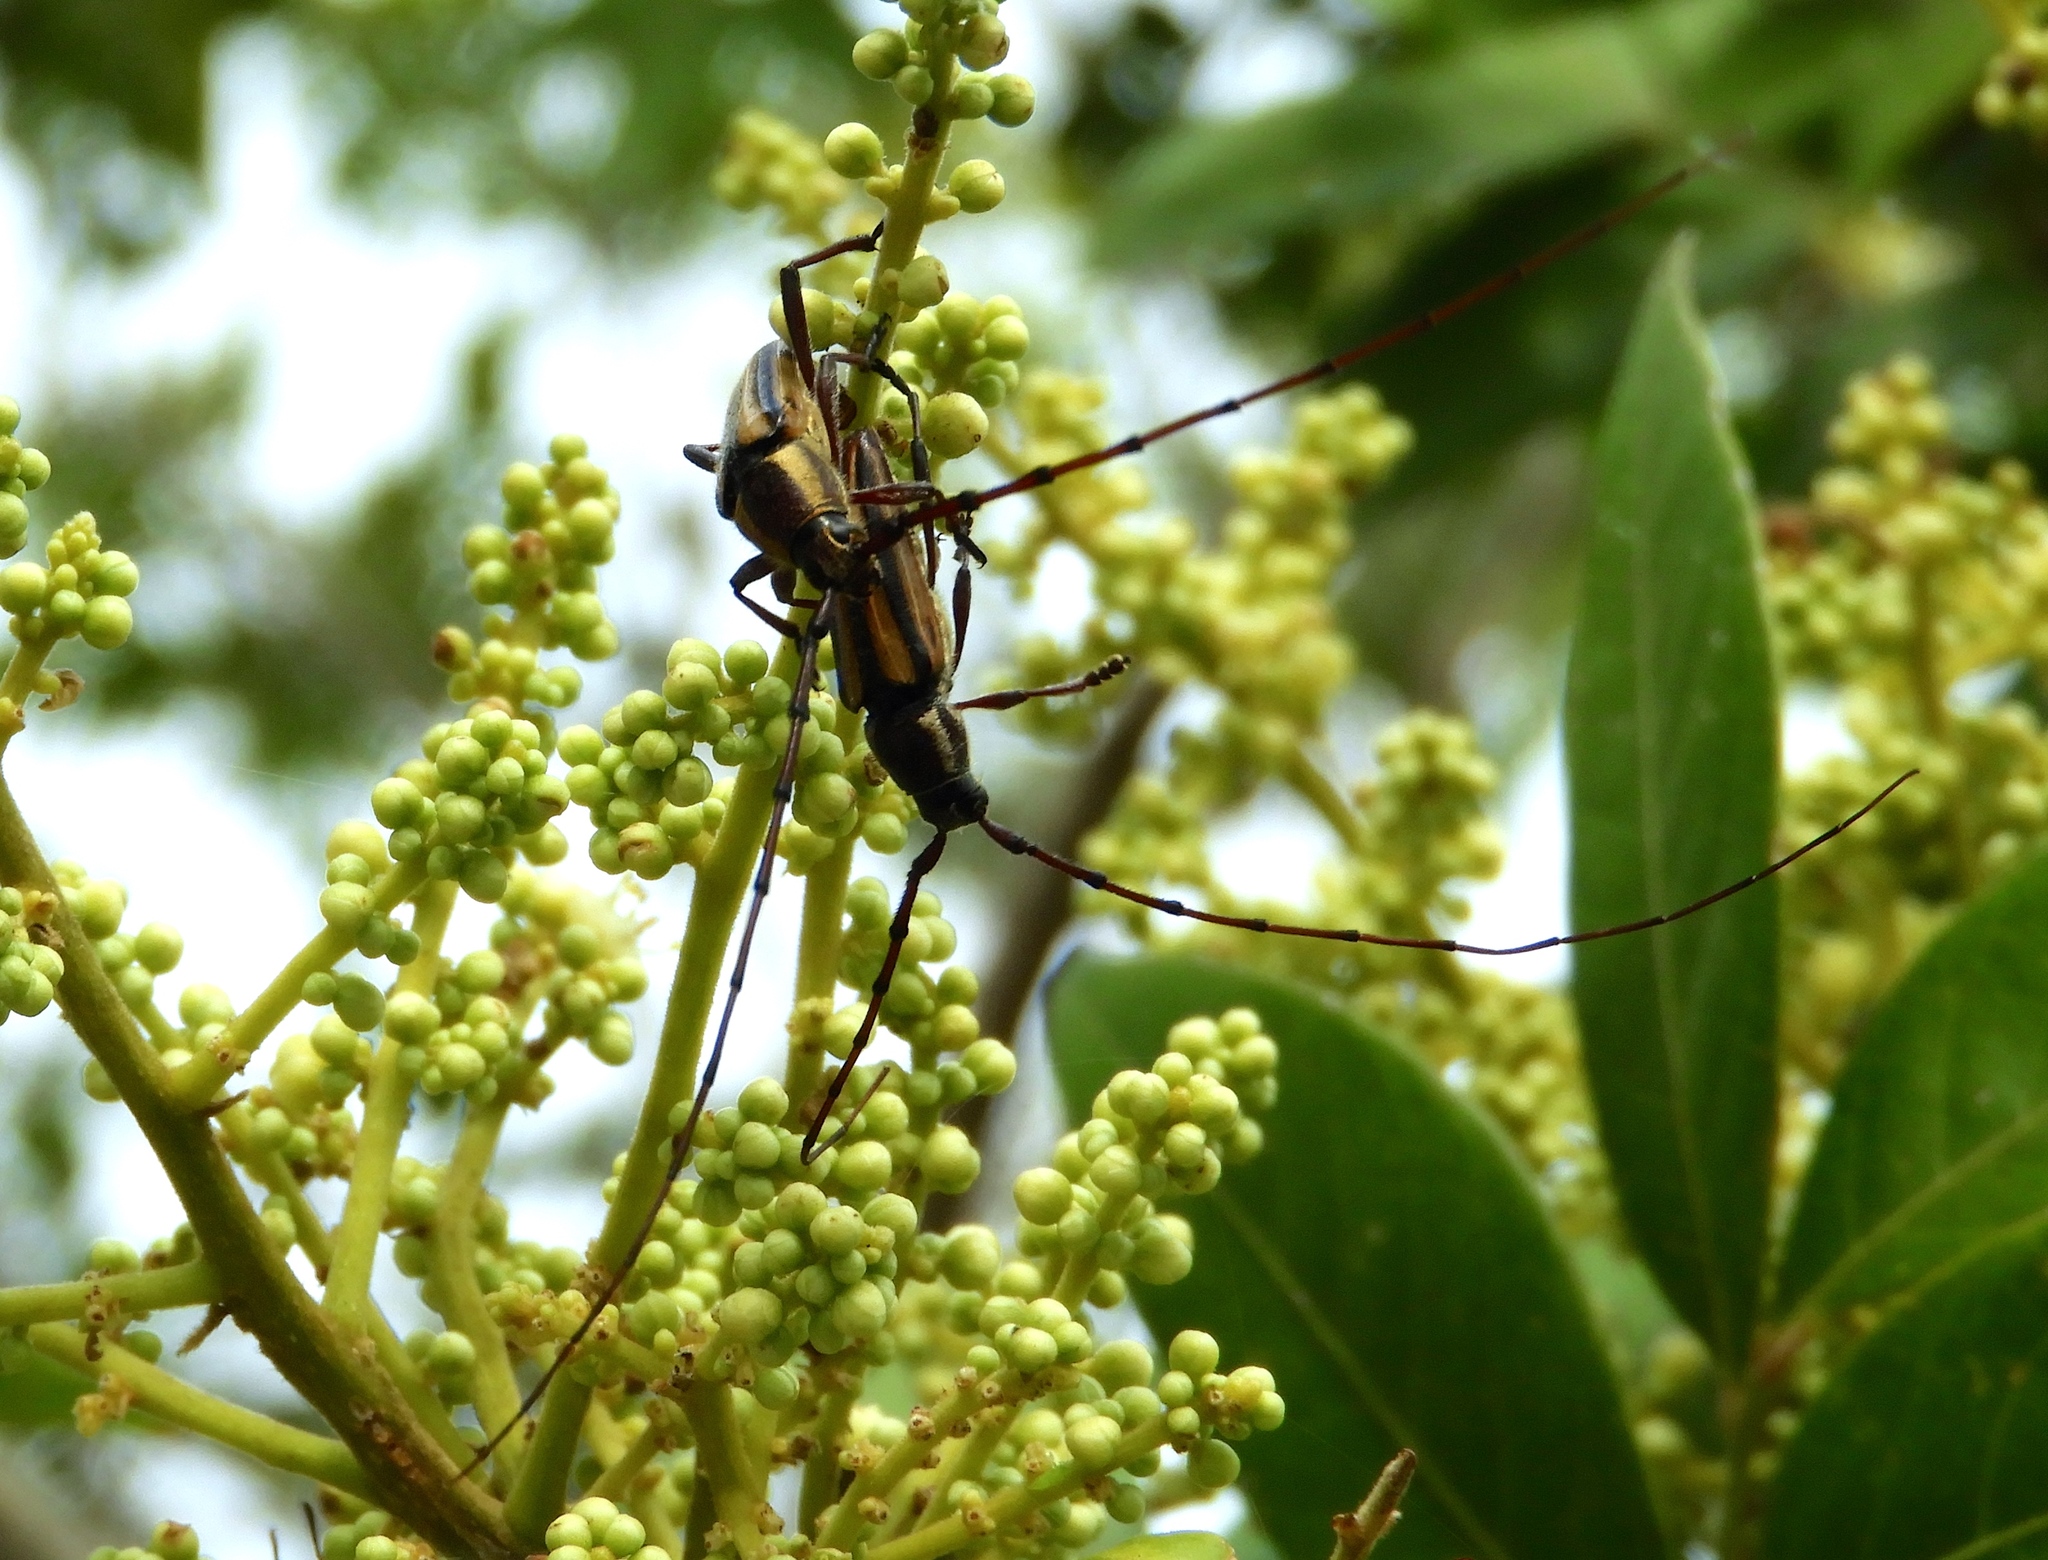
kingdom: Animalia
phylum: Arthropoda
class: Insecta
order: Coleoptera
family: Cerambycidae
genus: Sphaenothecus
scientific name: Sphaenothecus
